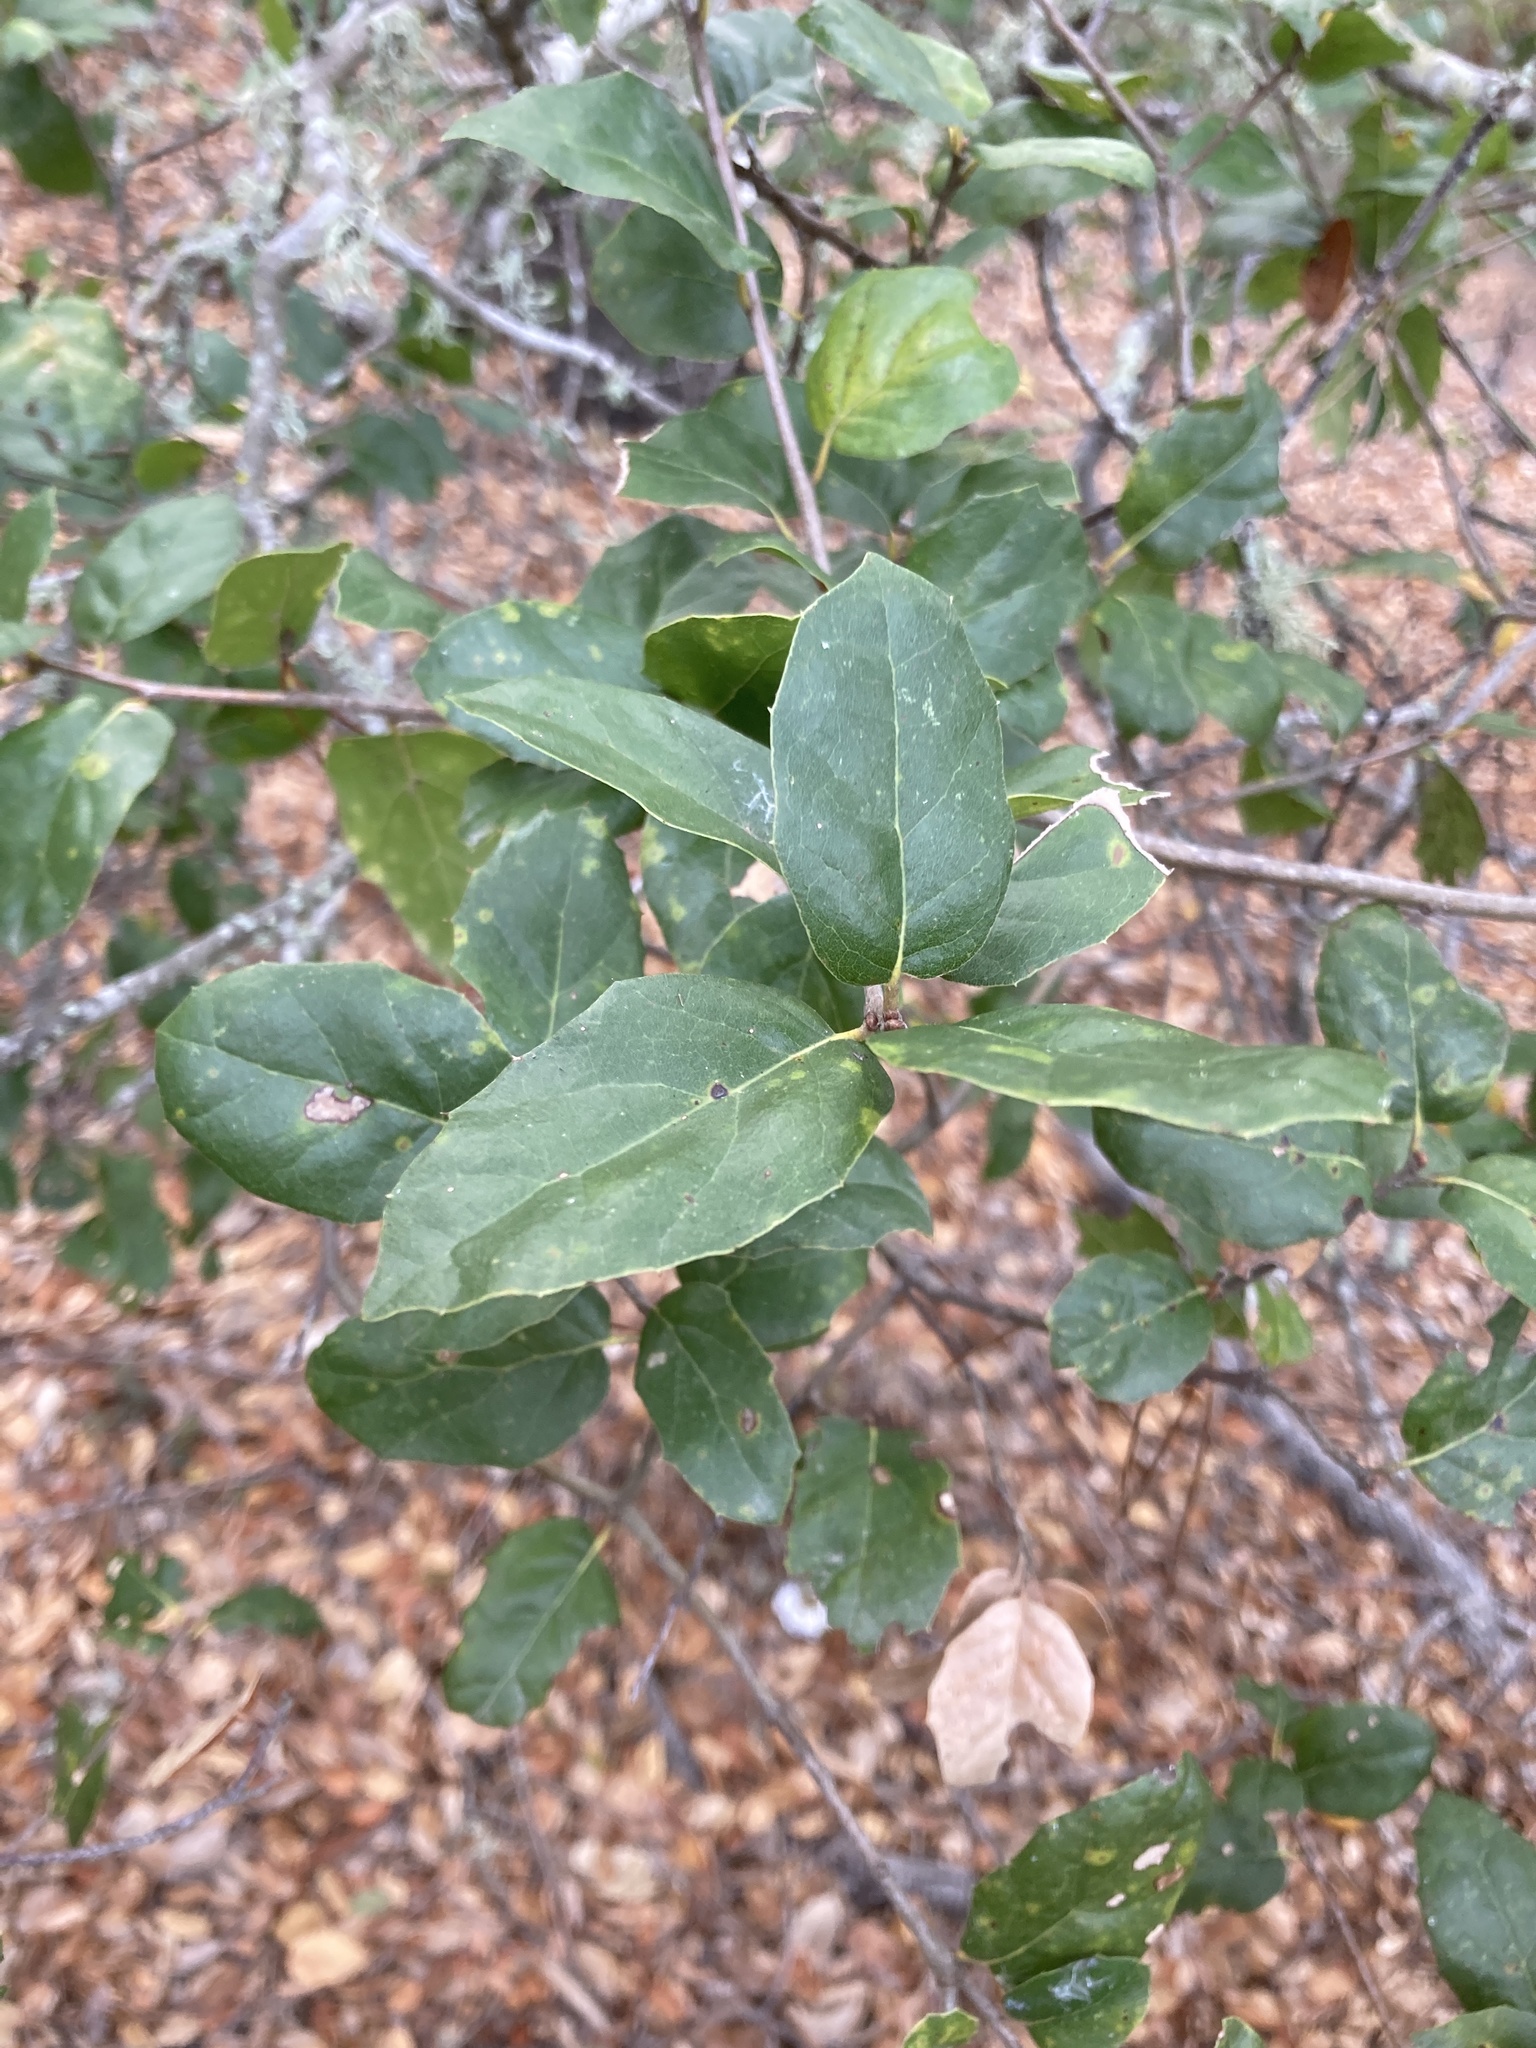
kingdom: Plantae
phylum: Tracheophyta
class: Magnoliopsida
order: Fagales
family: Fagaceae
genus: Quercus
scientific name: Quercus agrifolia
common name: California live oak
